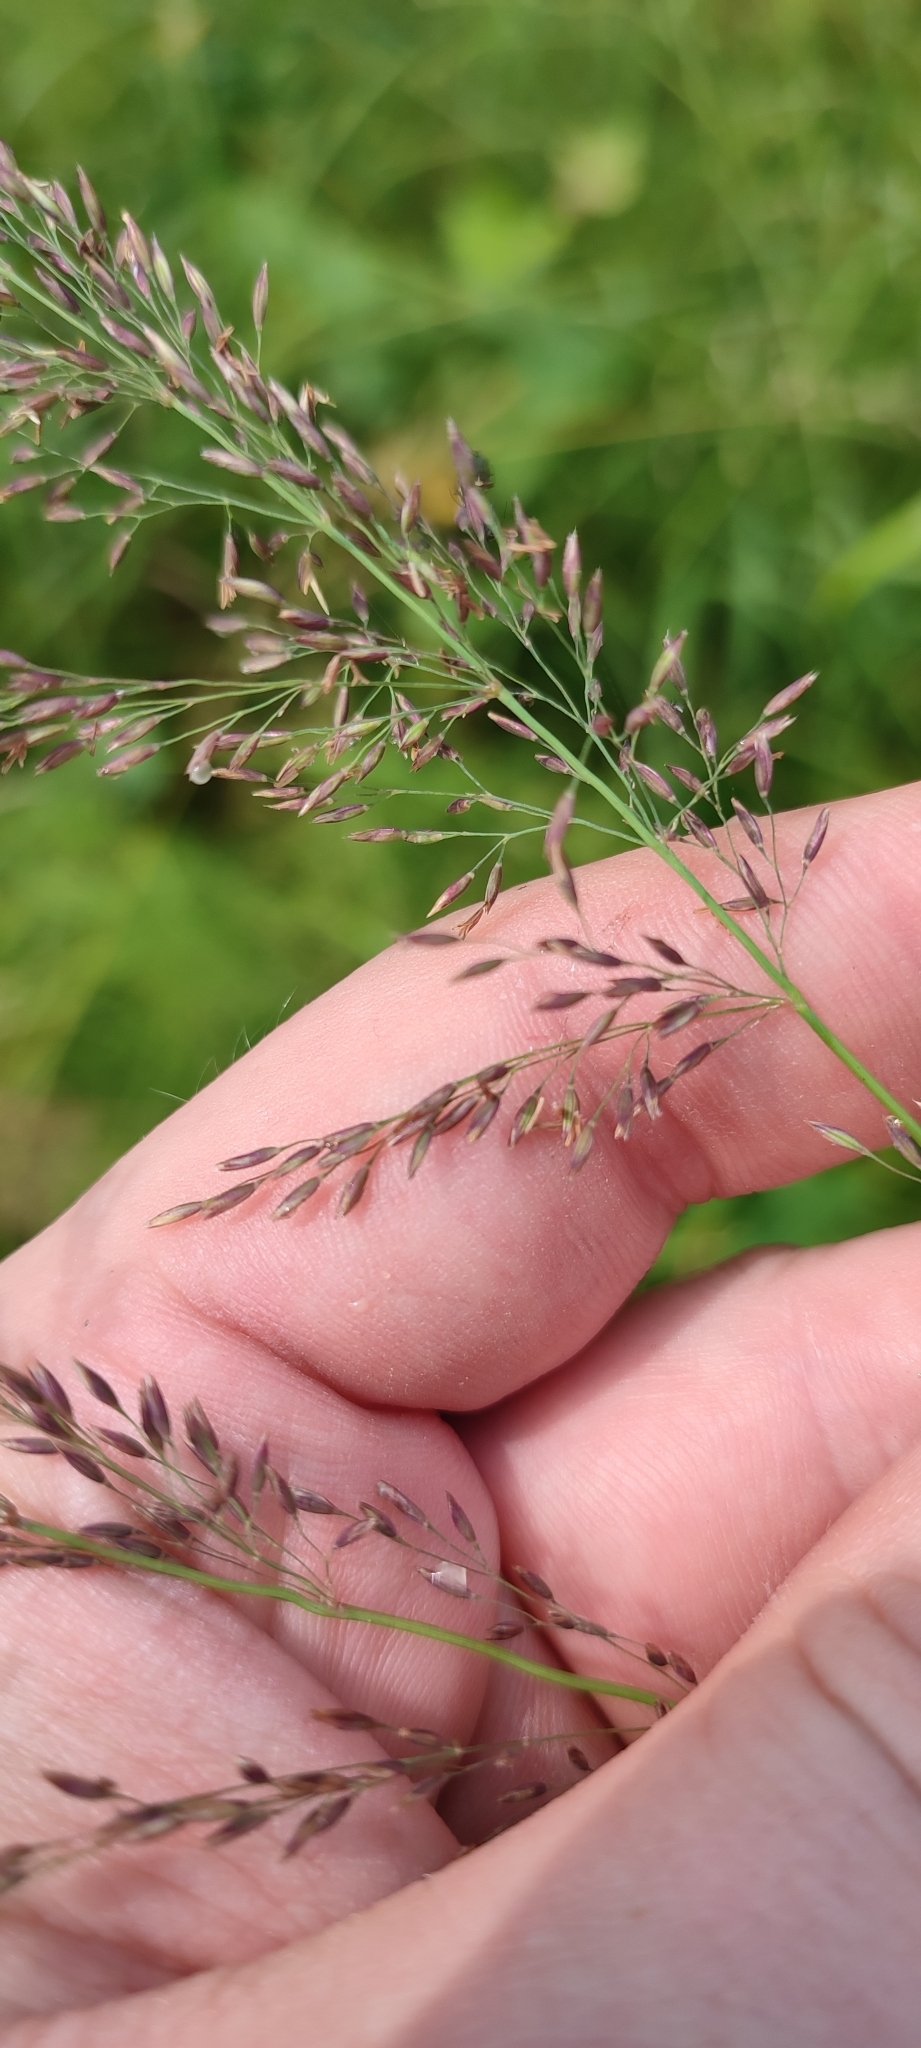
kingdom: Plantae
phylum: Tracheophyta
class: Liliopsida
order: Poales
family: Poaceae
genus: Calamagrostis
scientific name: Calamagrostis obtusata
